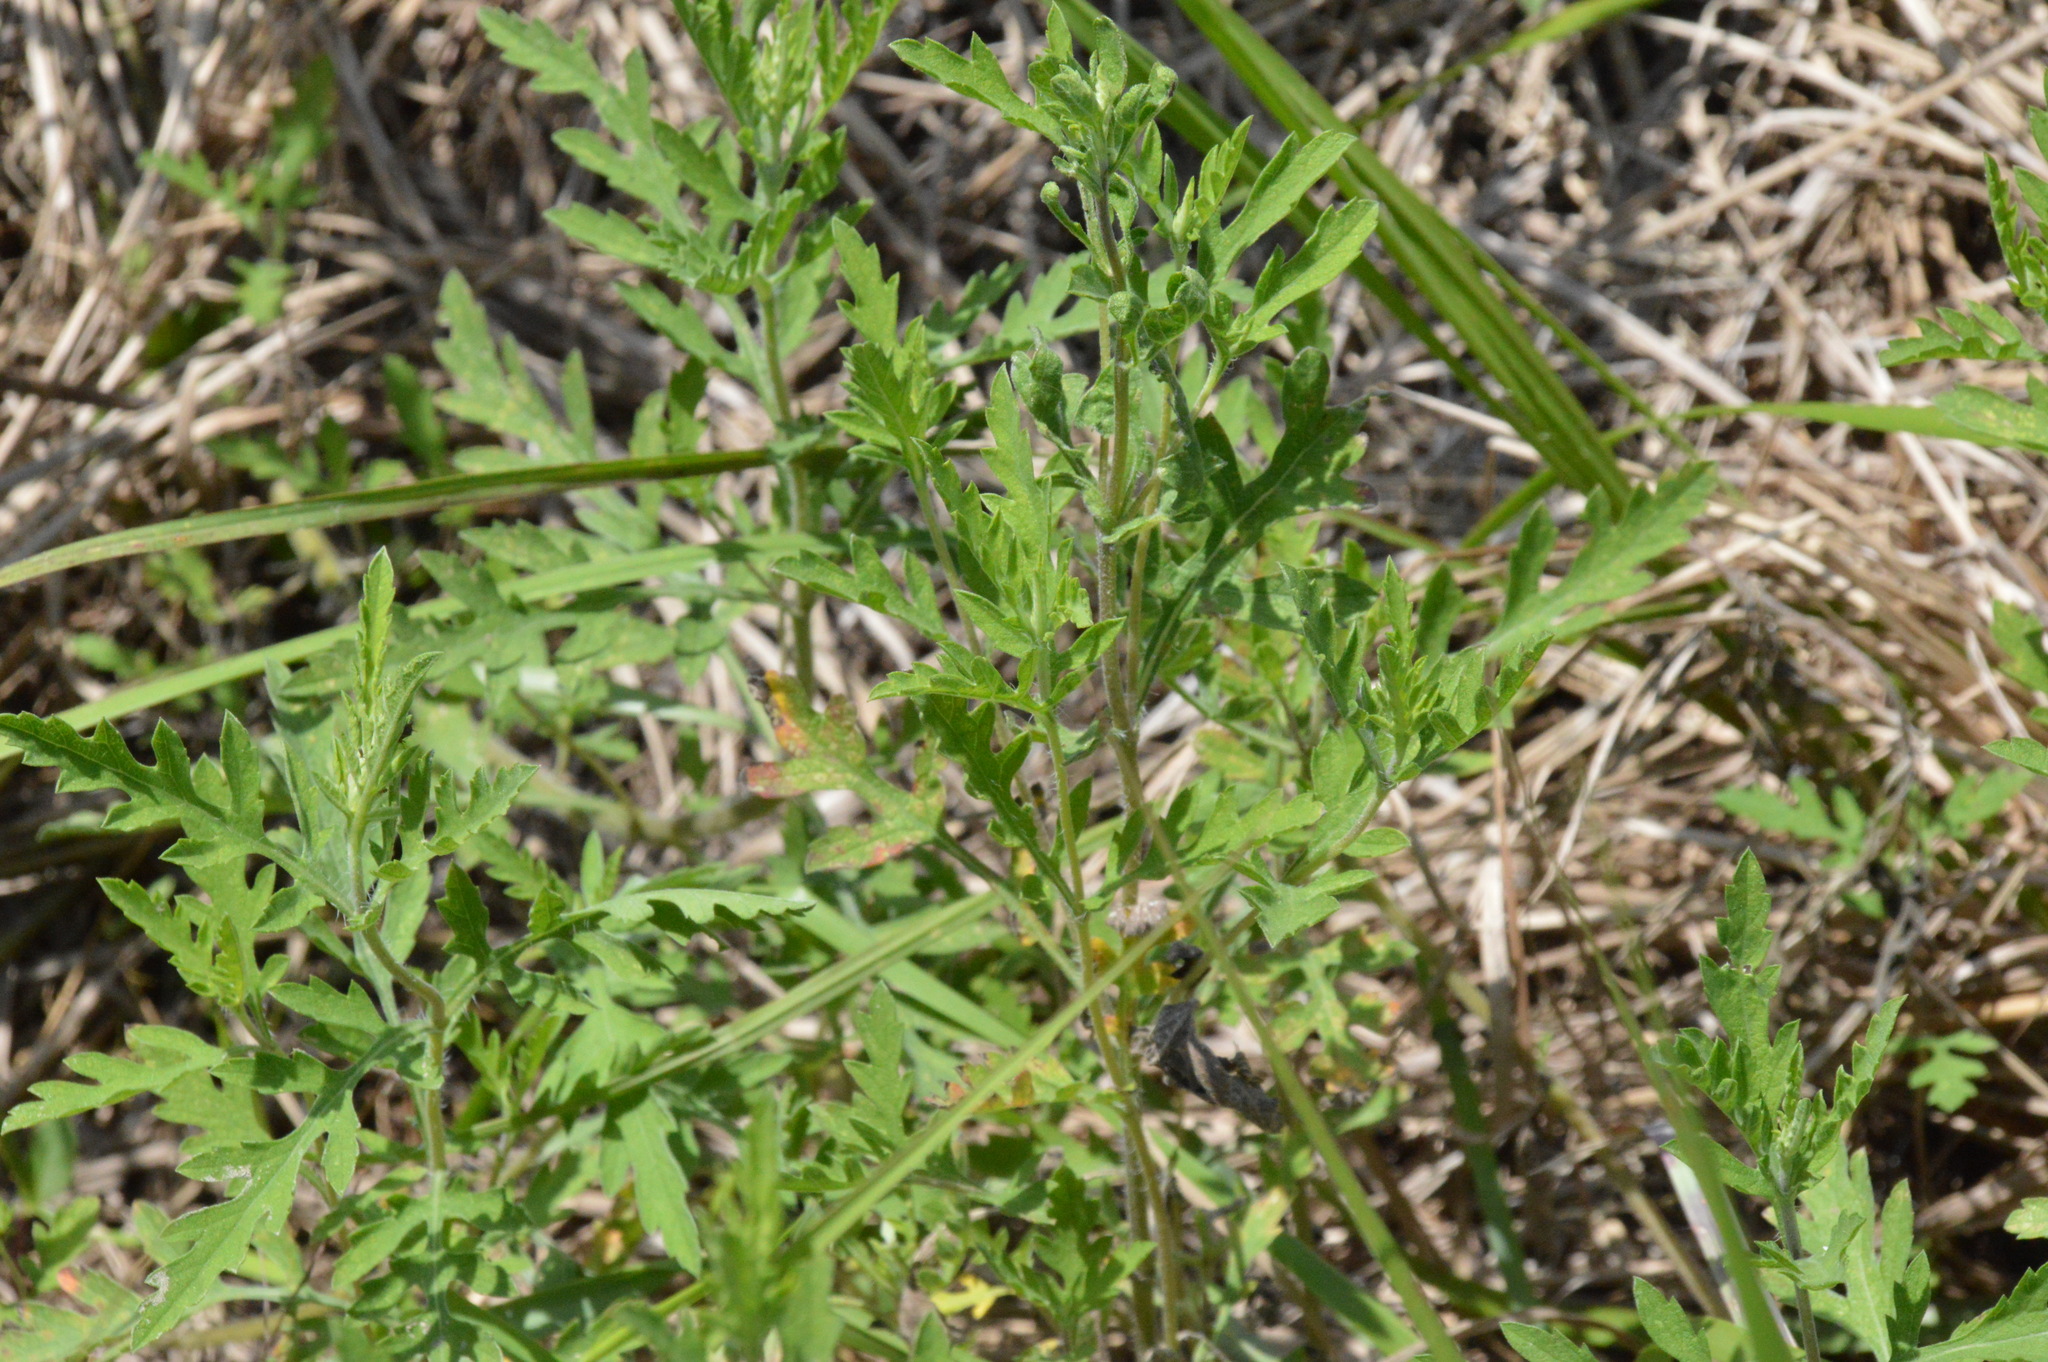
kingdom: Plantae
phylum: Tracheophyta
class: Magnoliopsida
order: Asterales
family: Asteraceae
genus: Ambrosia
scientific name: Ambrosia psilostachya
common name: Perennial ragweed
